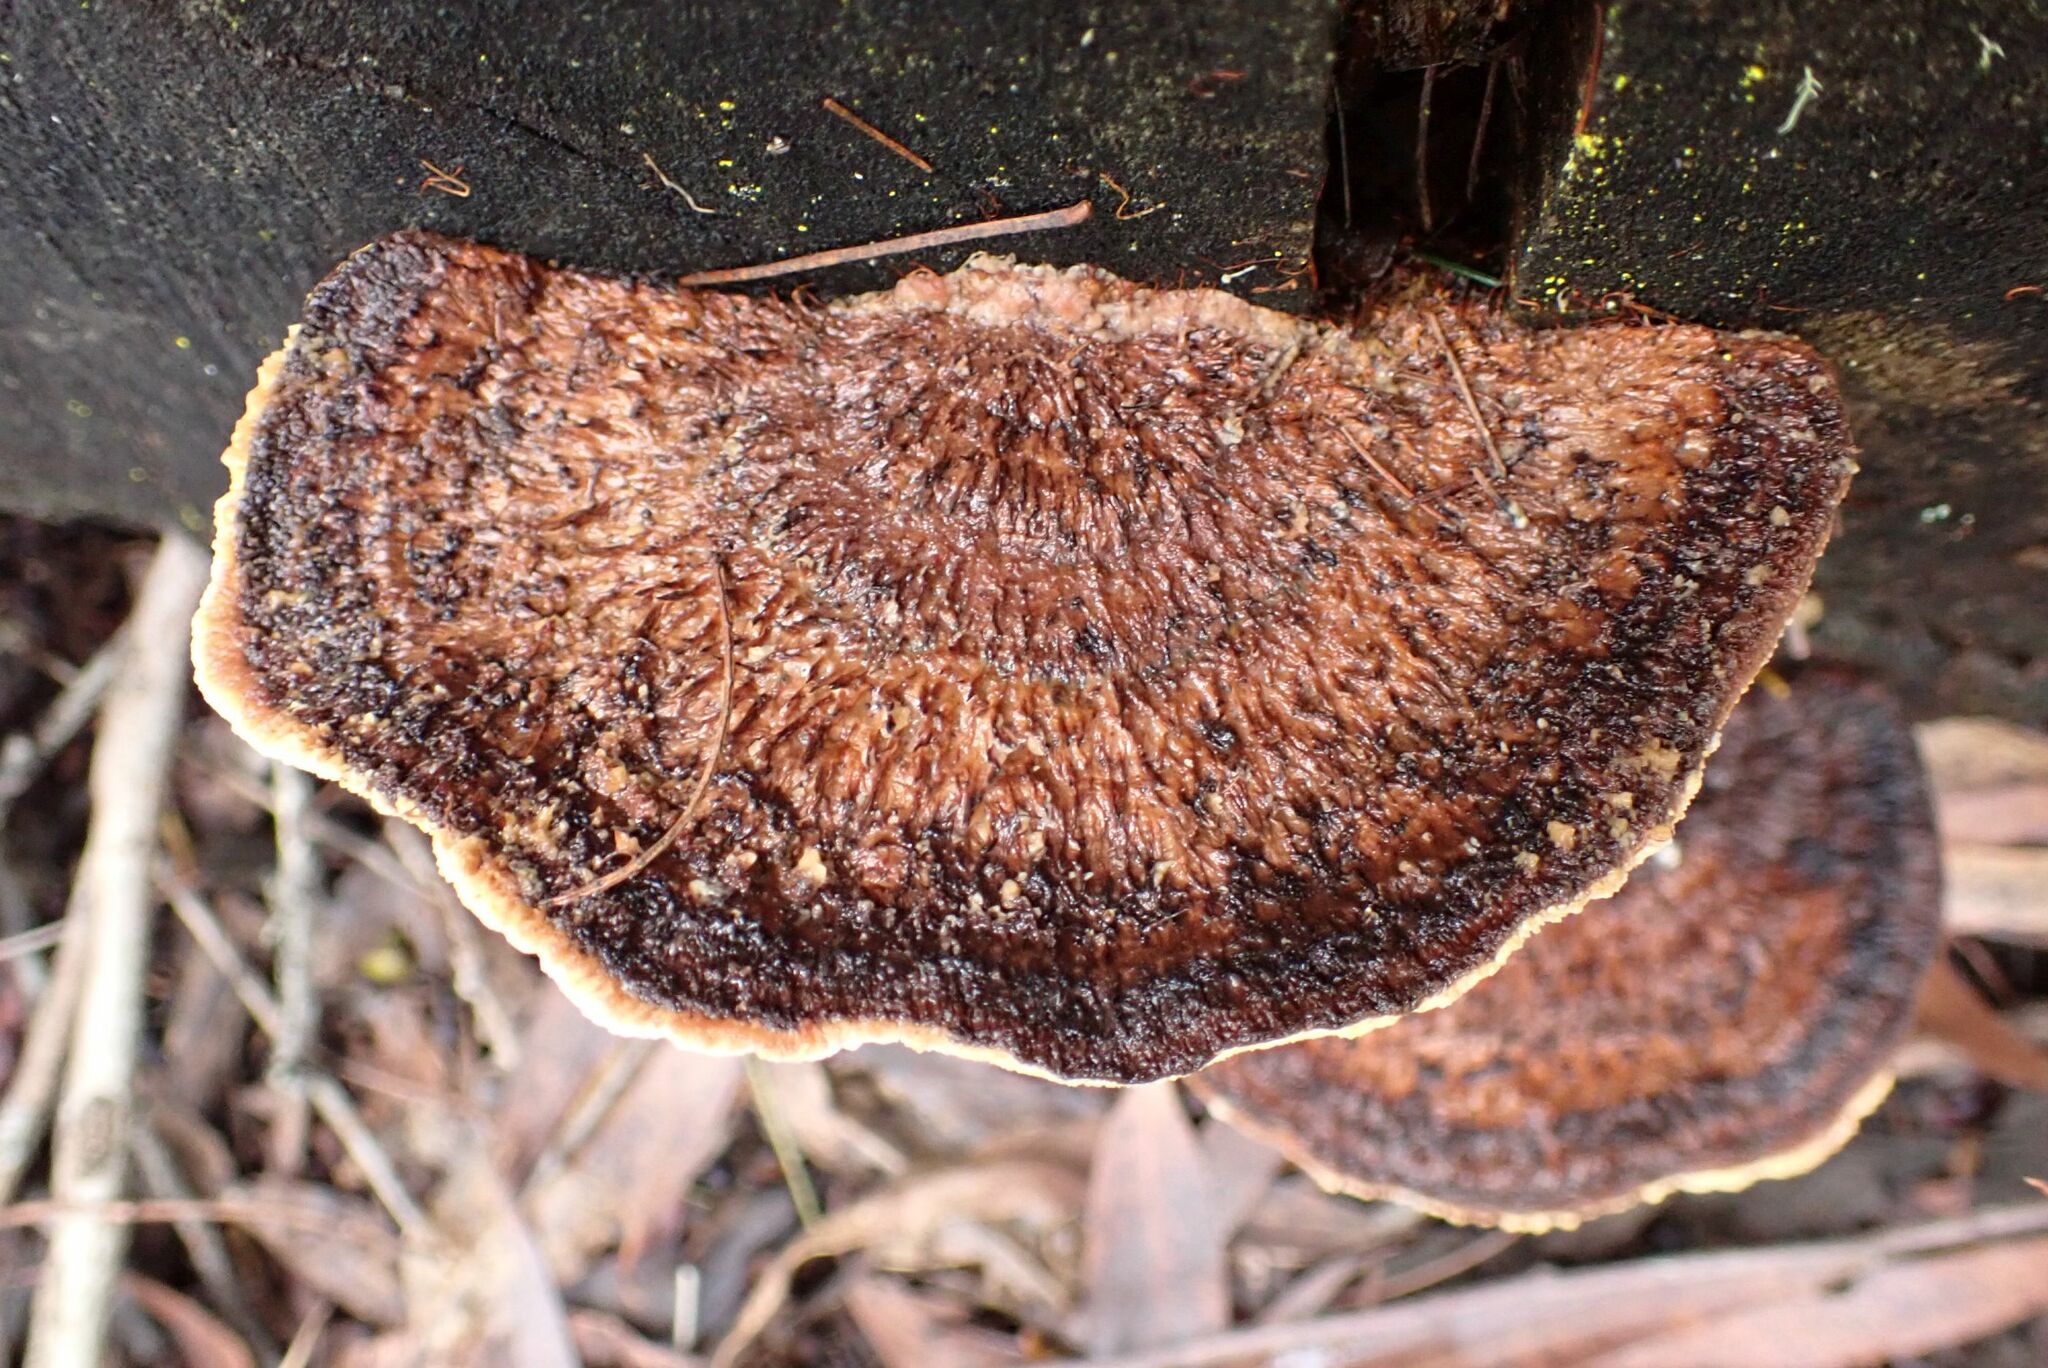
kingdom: Fungi
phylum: Basidiomycota
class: Agaricomycetes
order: Polyporales
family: Polyporaceae
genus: Daedaleopsis
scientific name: Daedaleopsis confragosa
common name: Blushing bracket
